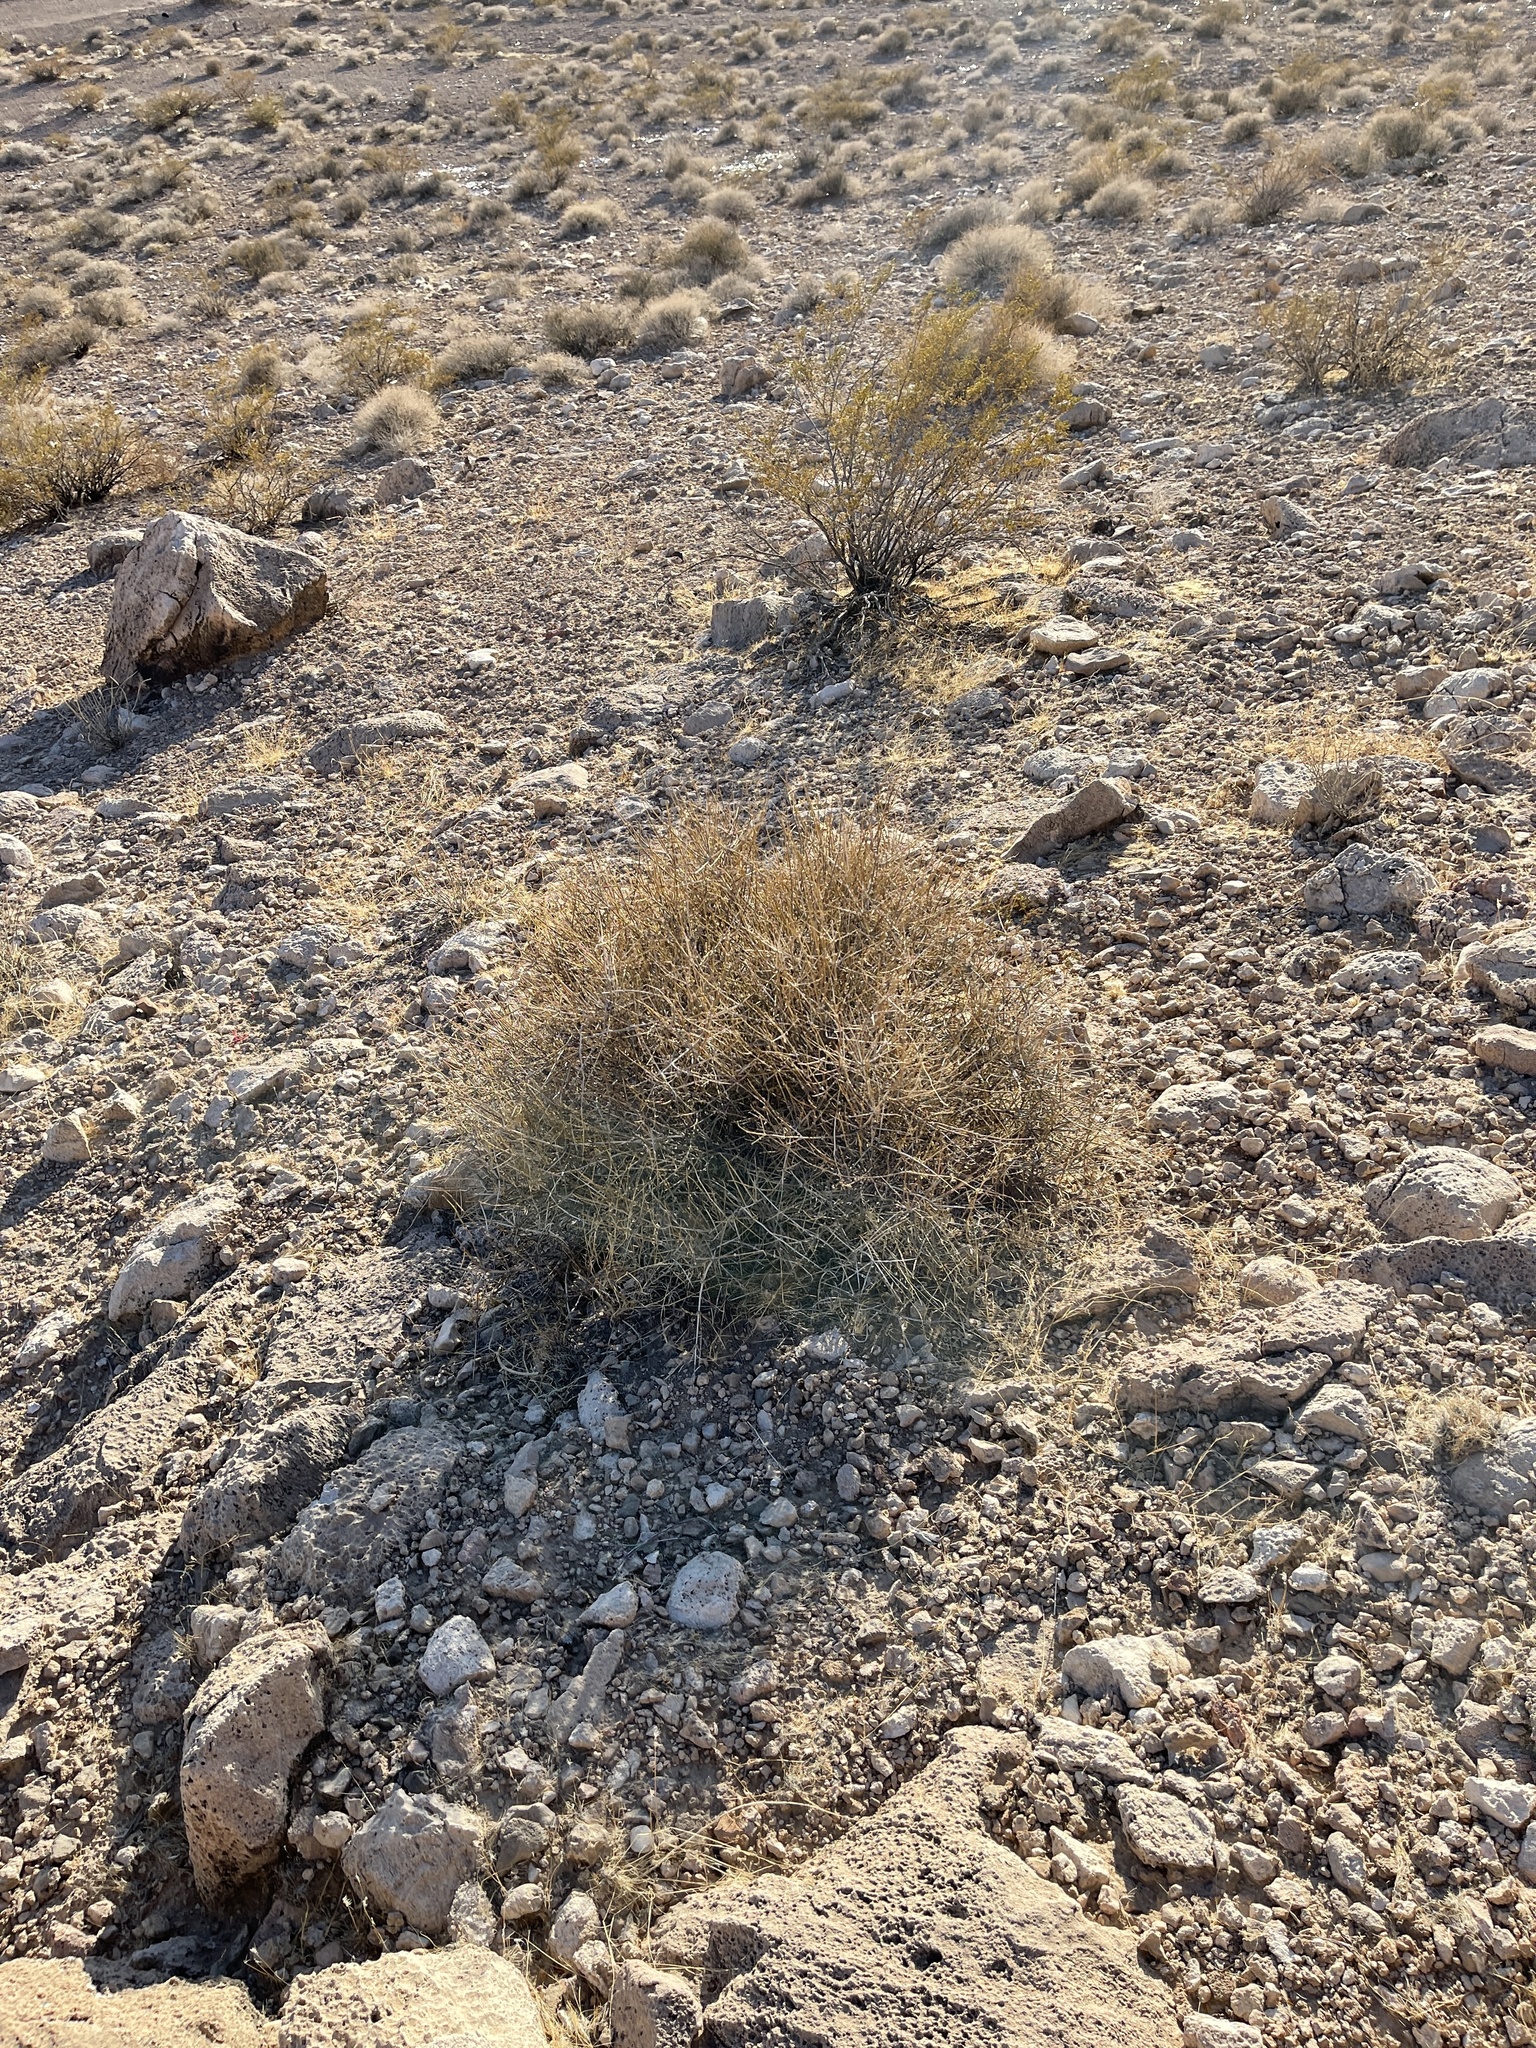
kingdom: Plantae
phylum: Tracheophyta
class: Gnetopsida
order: Ephedrales
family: Ephedraceae
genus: Ephedra
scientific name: Ephedra nevadensis
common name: Gray ephedra
